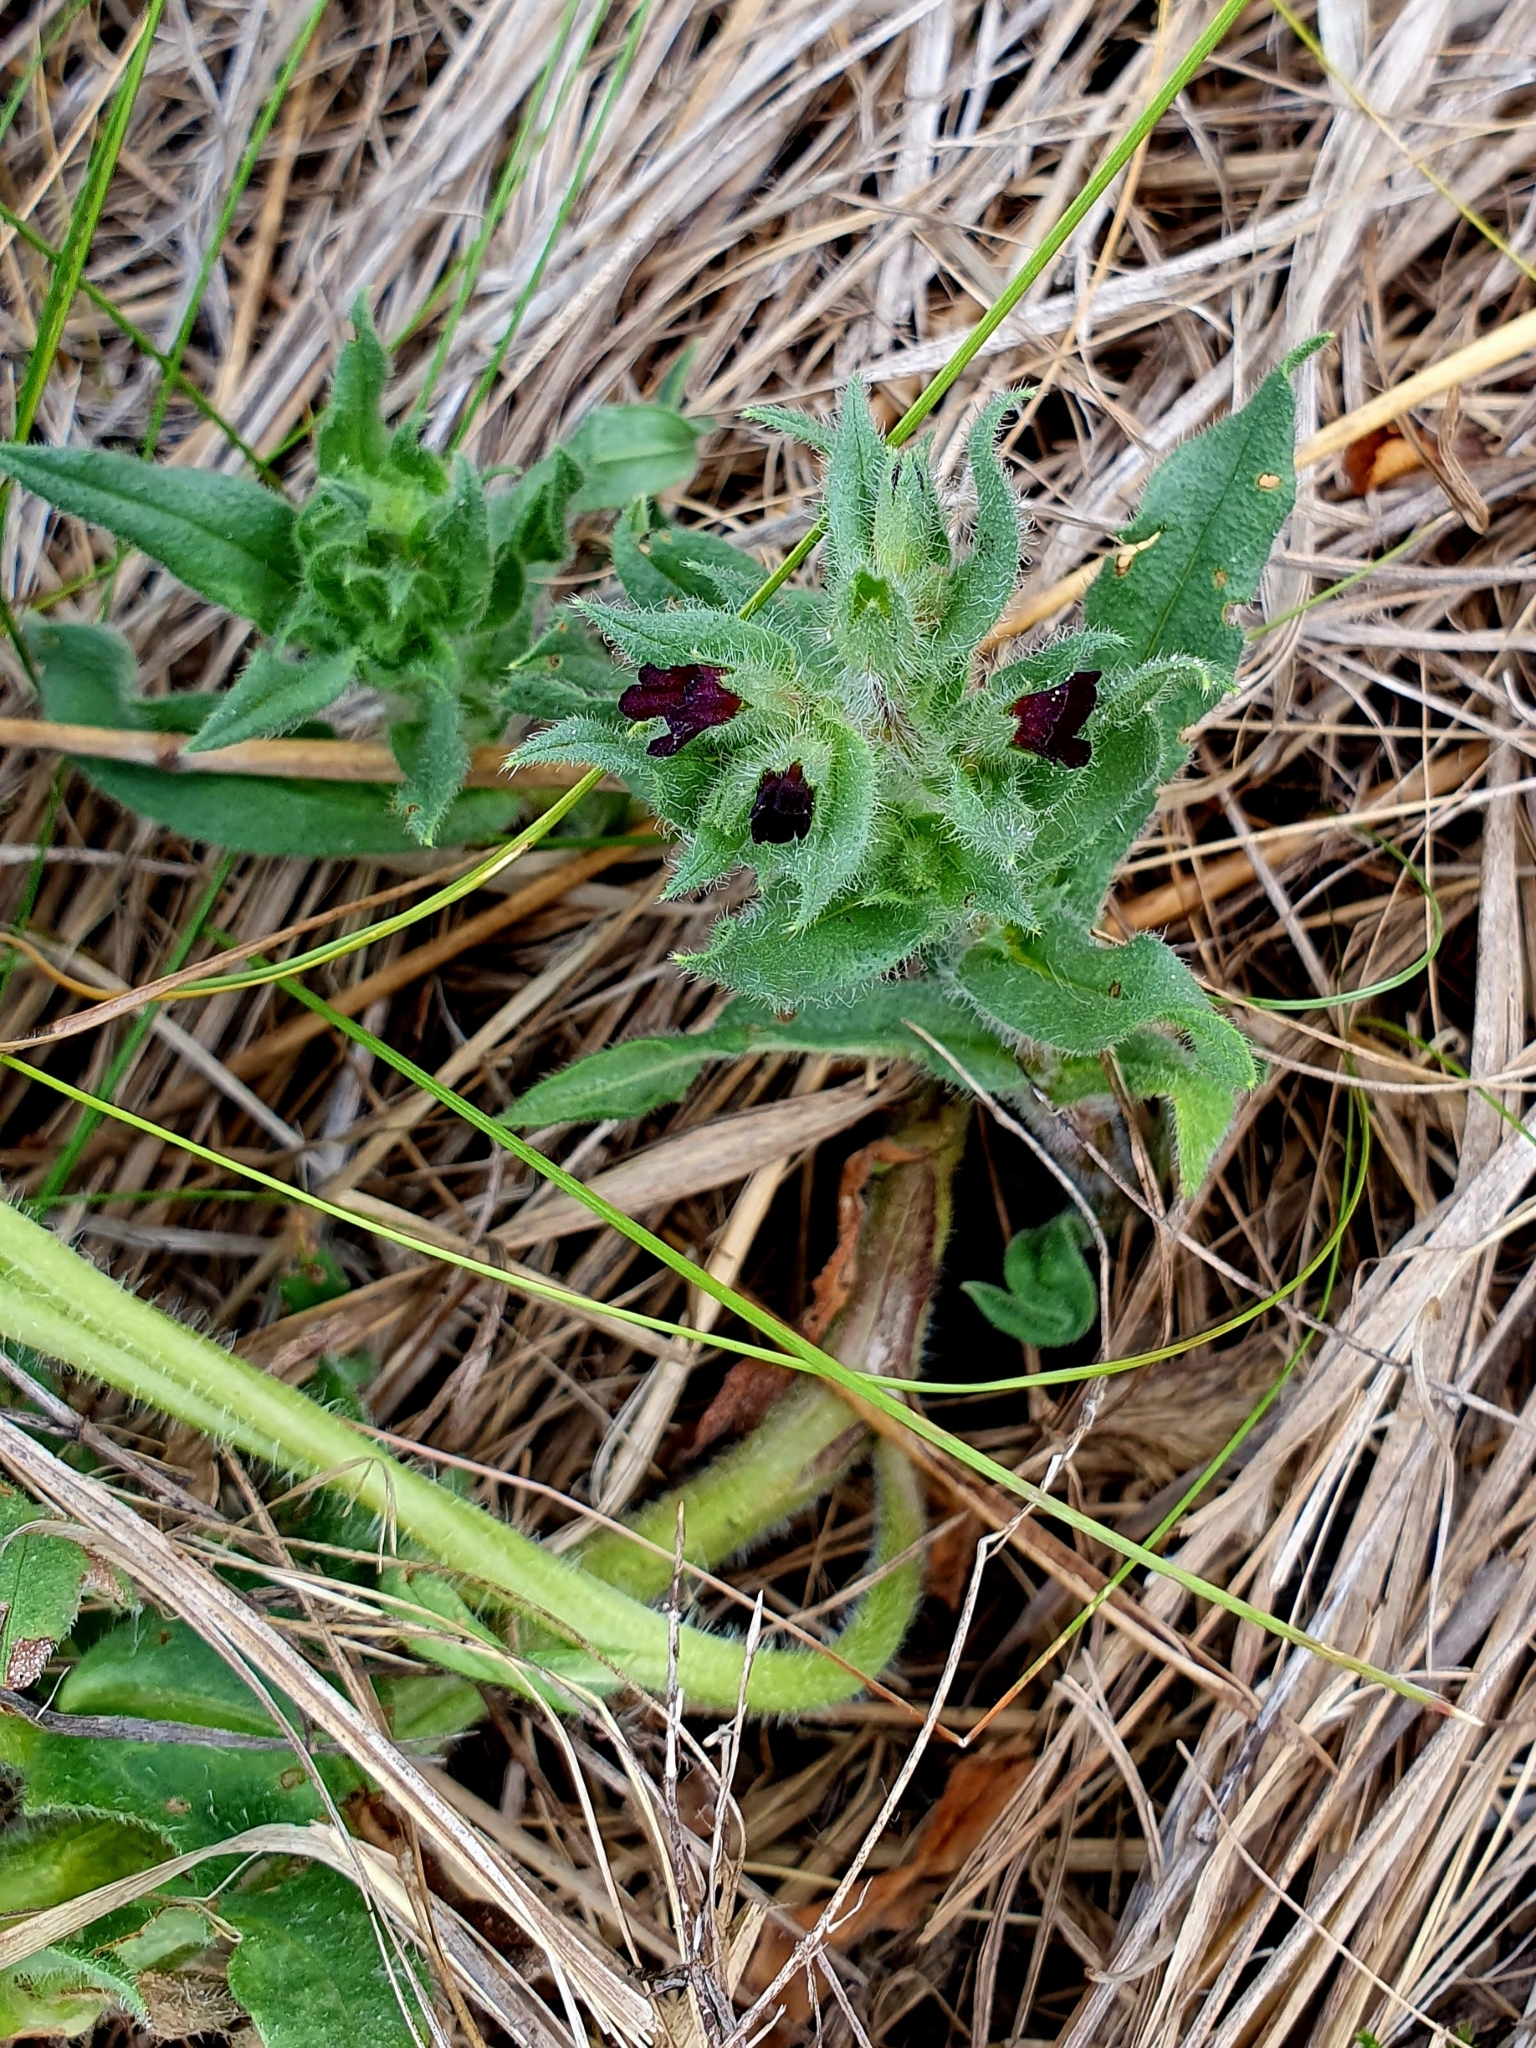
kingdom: Plantae
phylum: Tracheophyta
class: Magnoliopsida
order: Boraginales
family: Boraginaceae
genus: Nonea
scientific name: Nonea pulla
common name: Brown nonea
